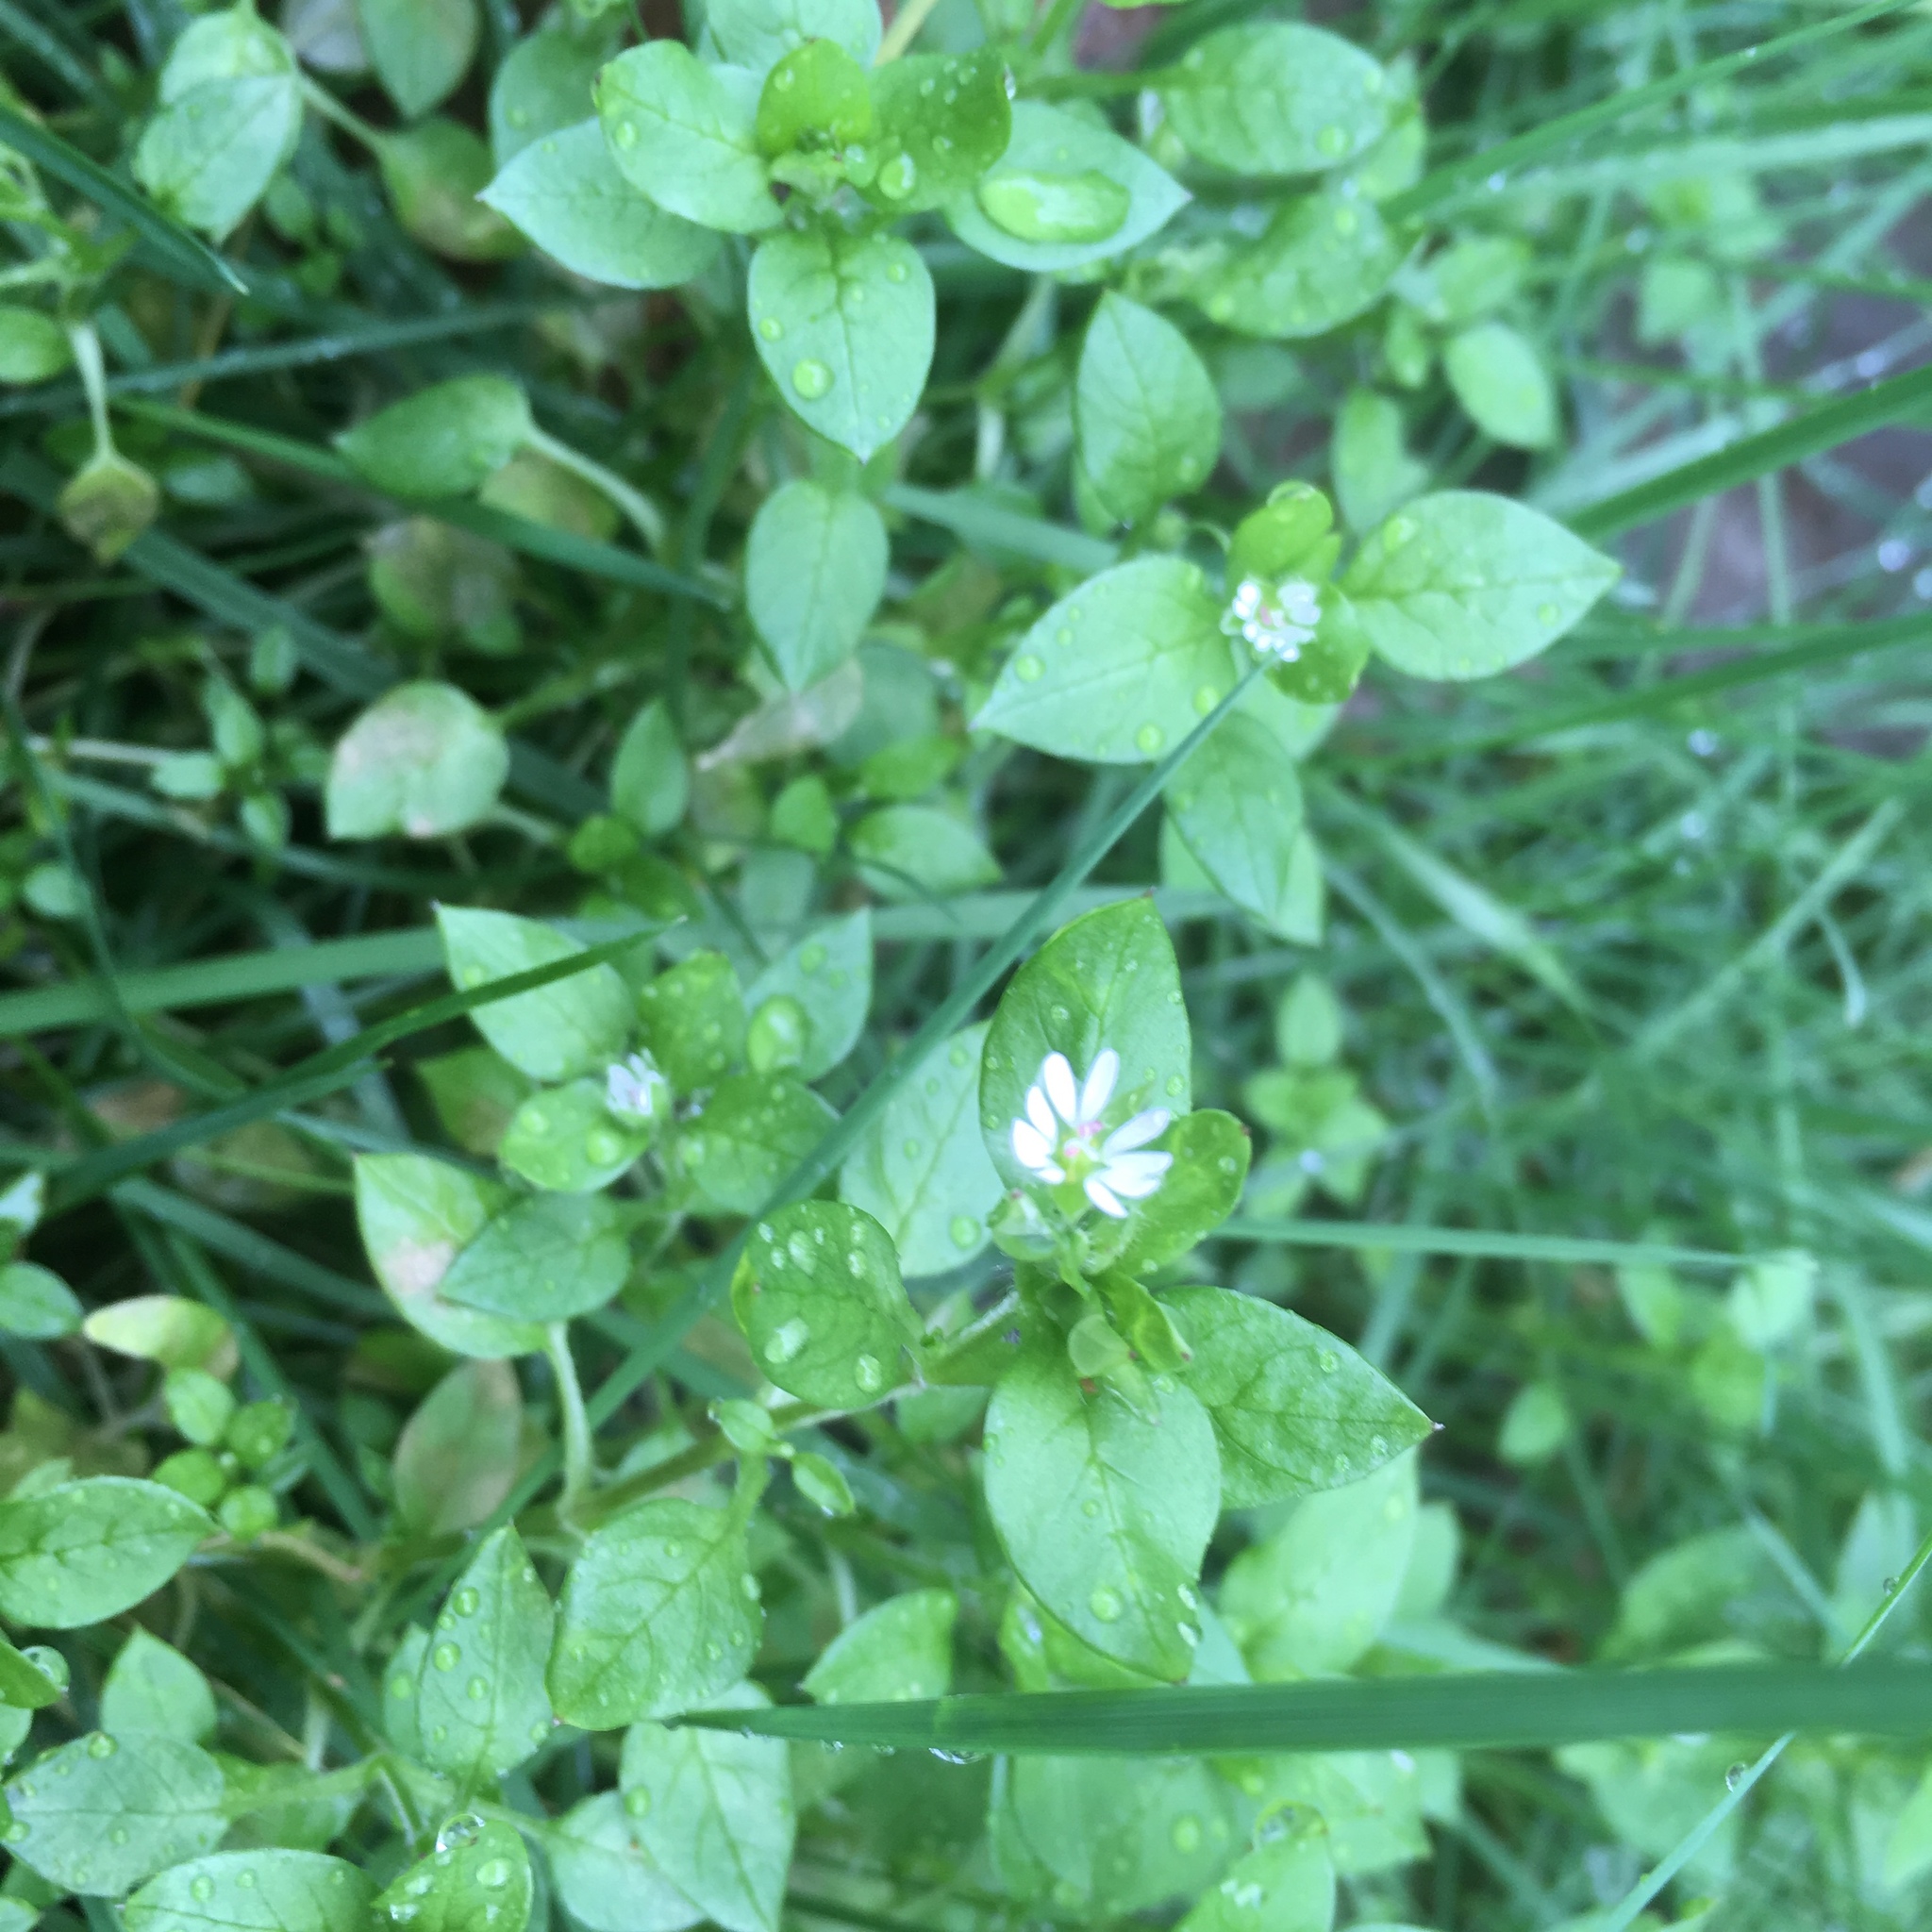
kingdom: Plantae
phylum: Tracheophyta
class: Magnoliopsida
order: Caryophyllales
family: Caryophyllaceae
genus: Stellaria
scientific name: Stellaria media
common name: Common chickweed
